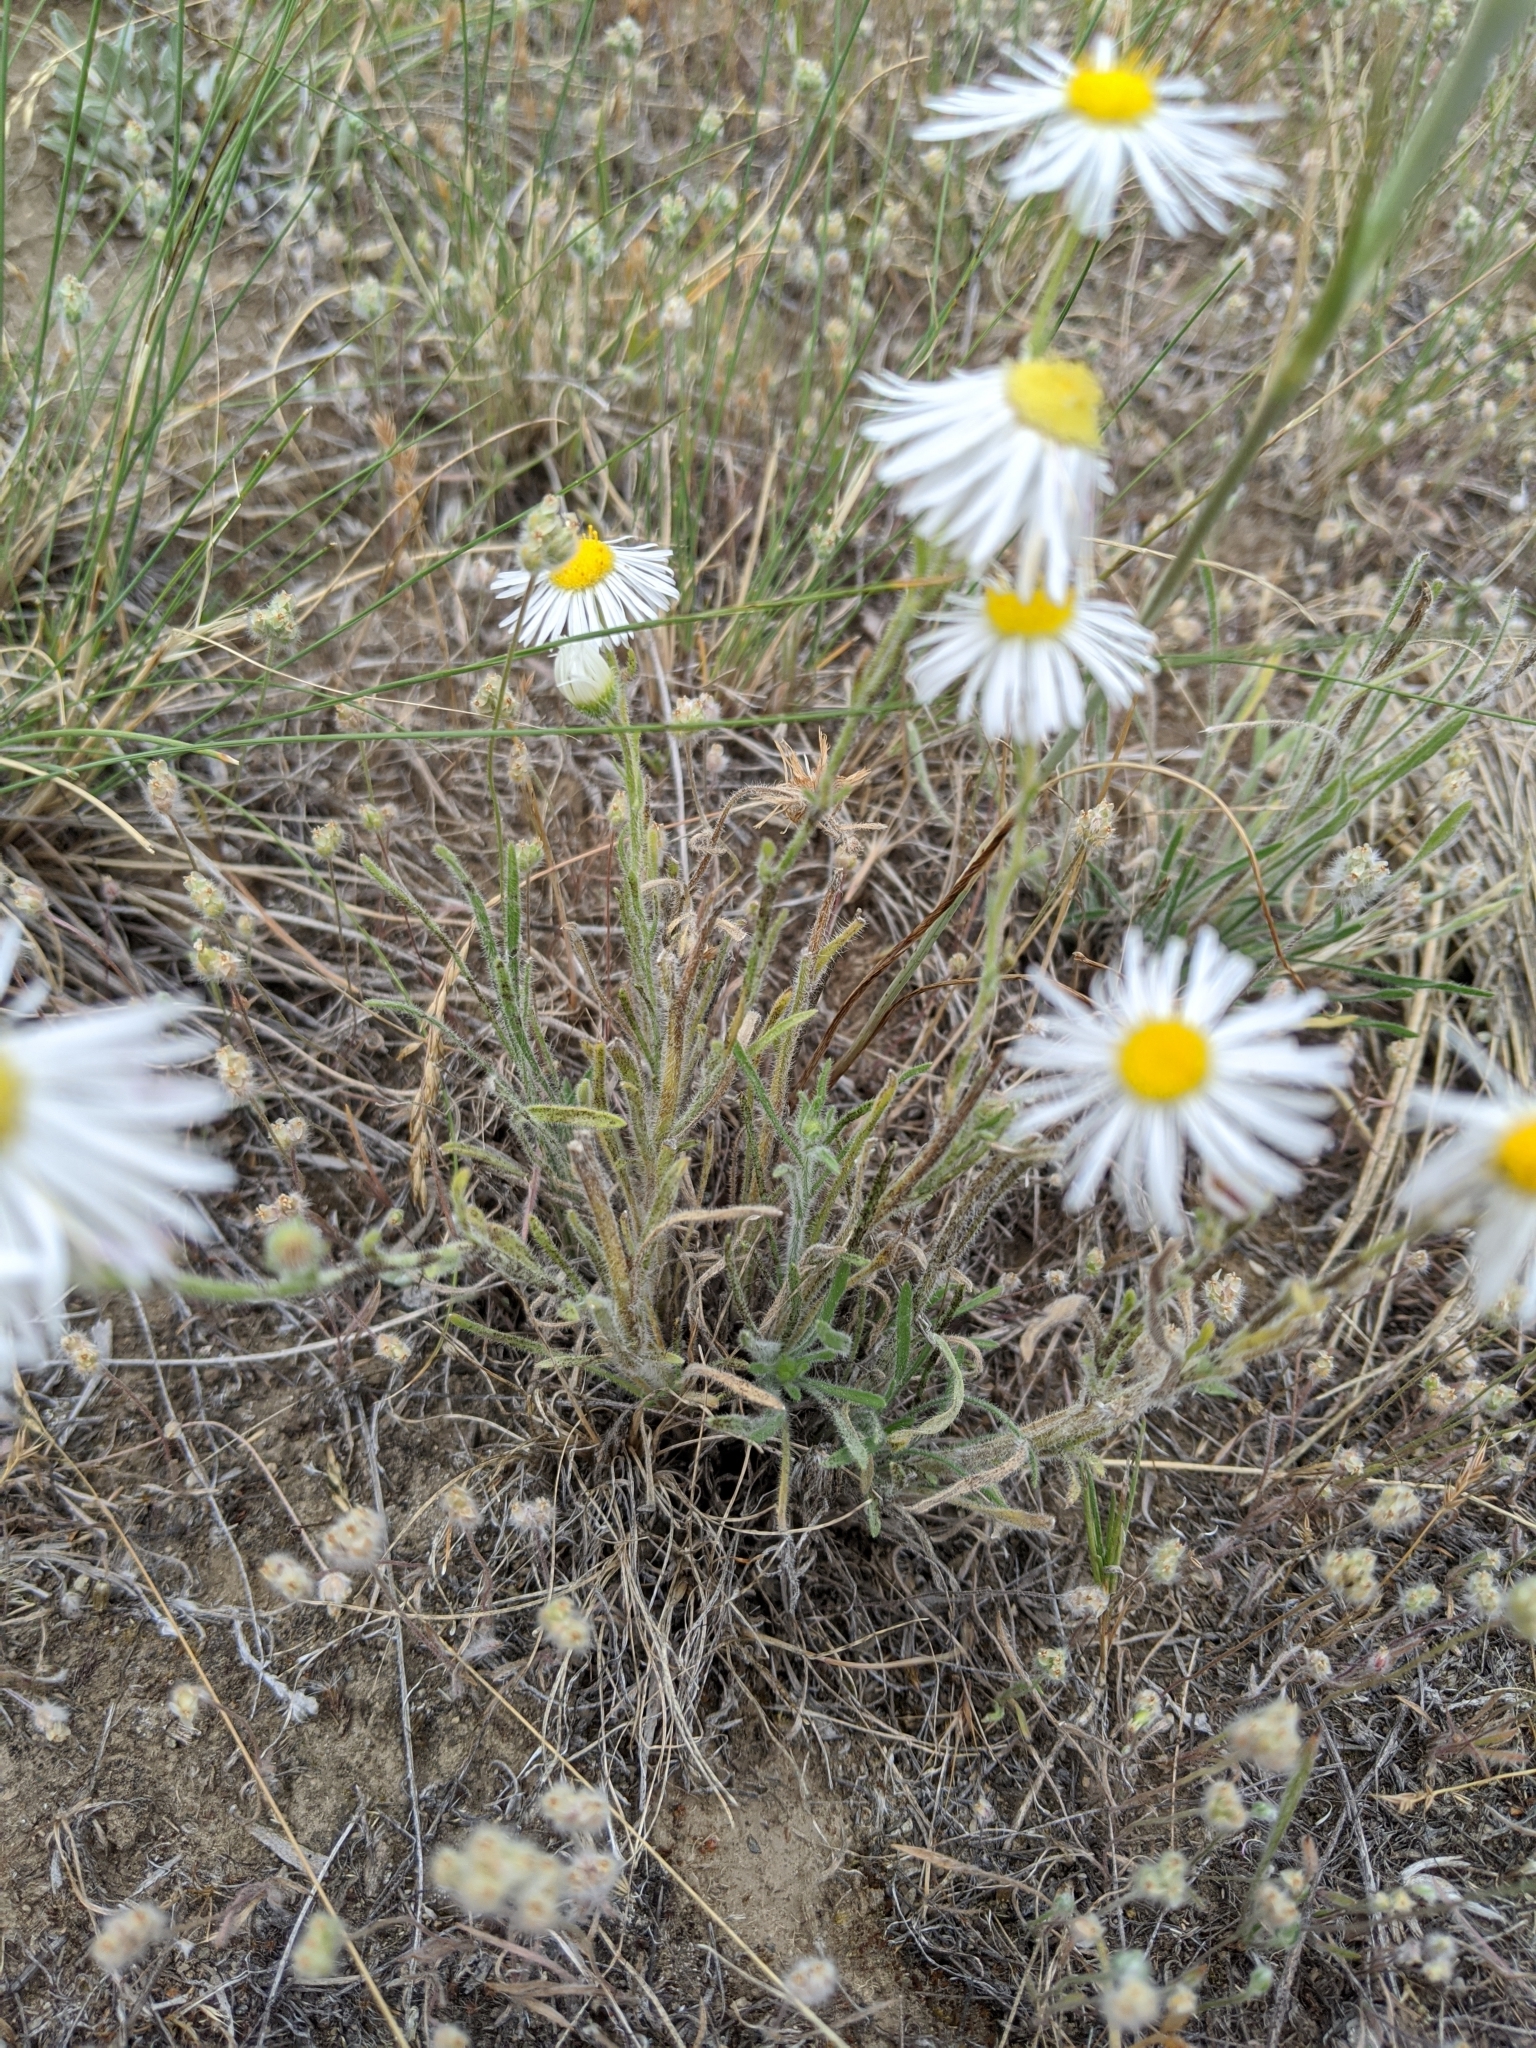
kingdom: Plantae
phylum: Tracheophyta
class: Magnoliopsida
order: Asterales
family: Asteraceae
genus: Erigeron
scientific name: Erigeron pumilus
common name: Shaggy fleabane
